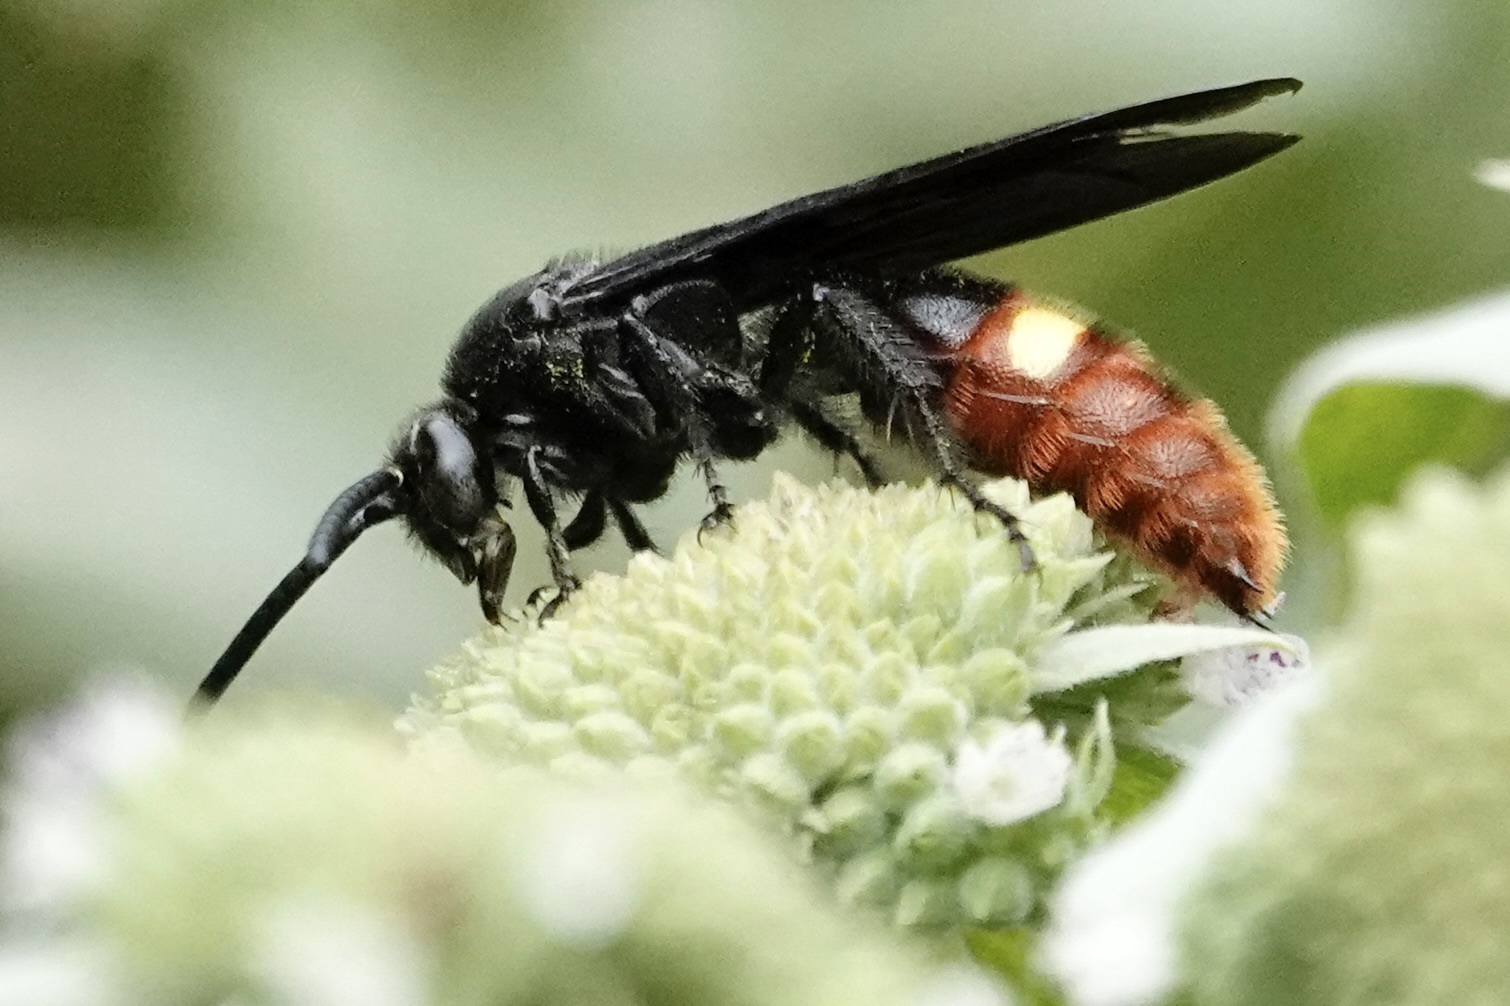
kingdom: Animalia
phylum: Arthropoda
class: Insecta
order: Hymenoptera
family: Scoliidae
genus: Scolia
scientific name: Scolia dubia
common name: Blue-winged scoliid wasp
